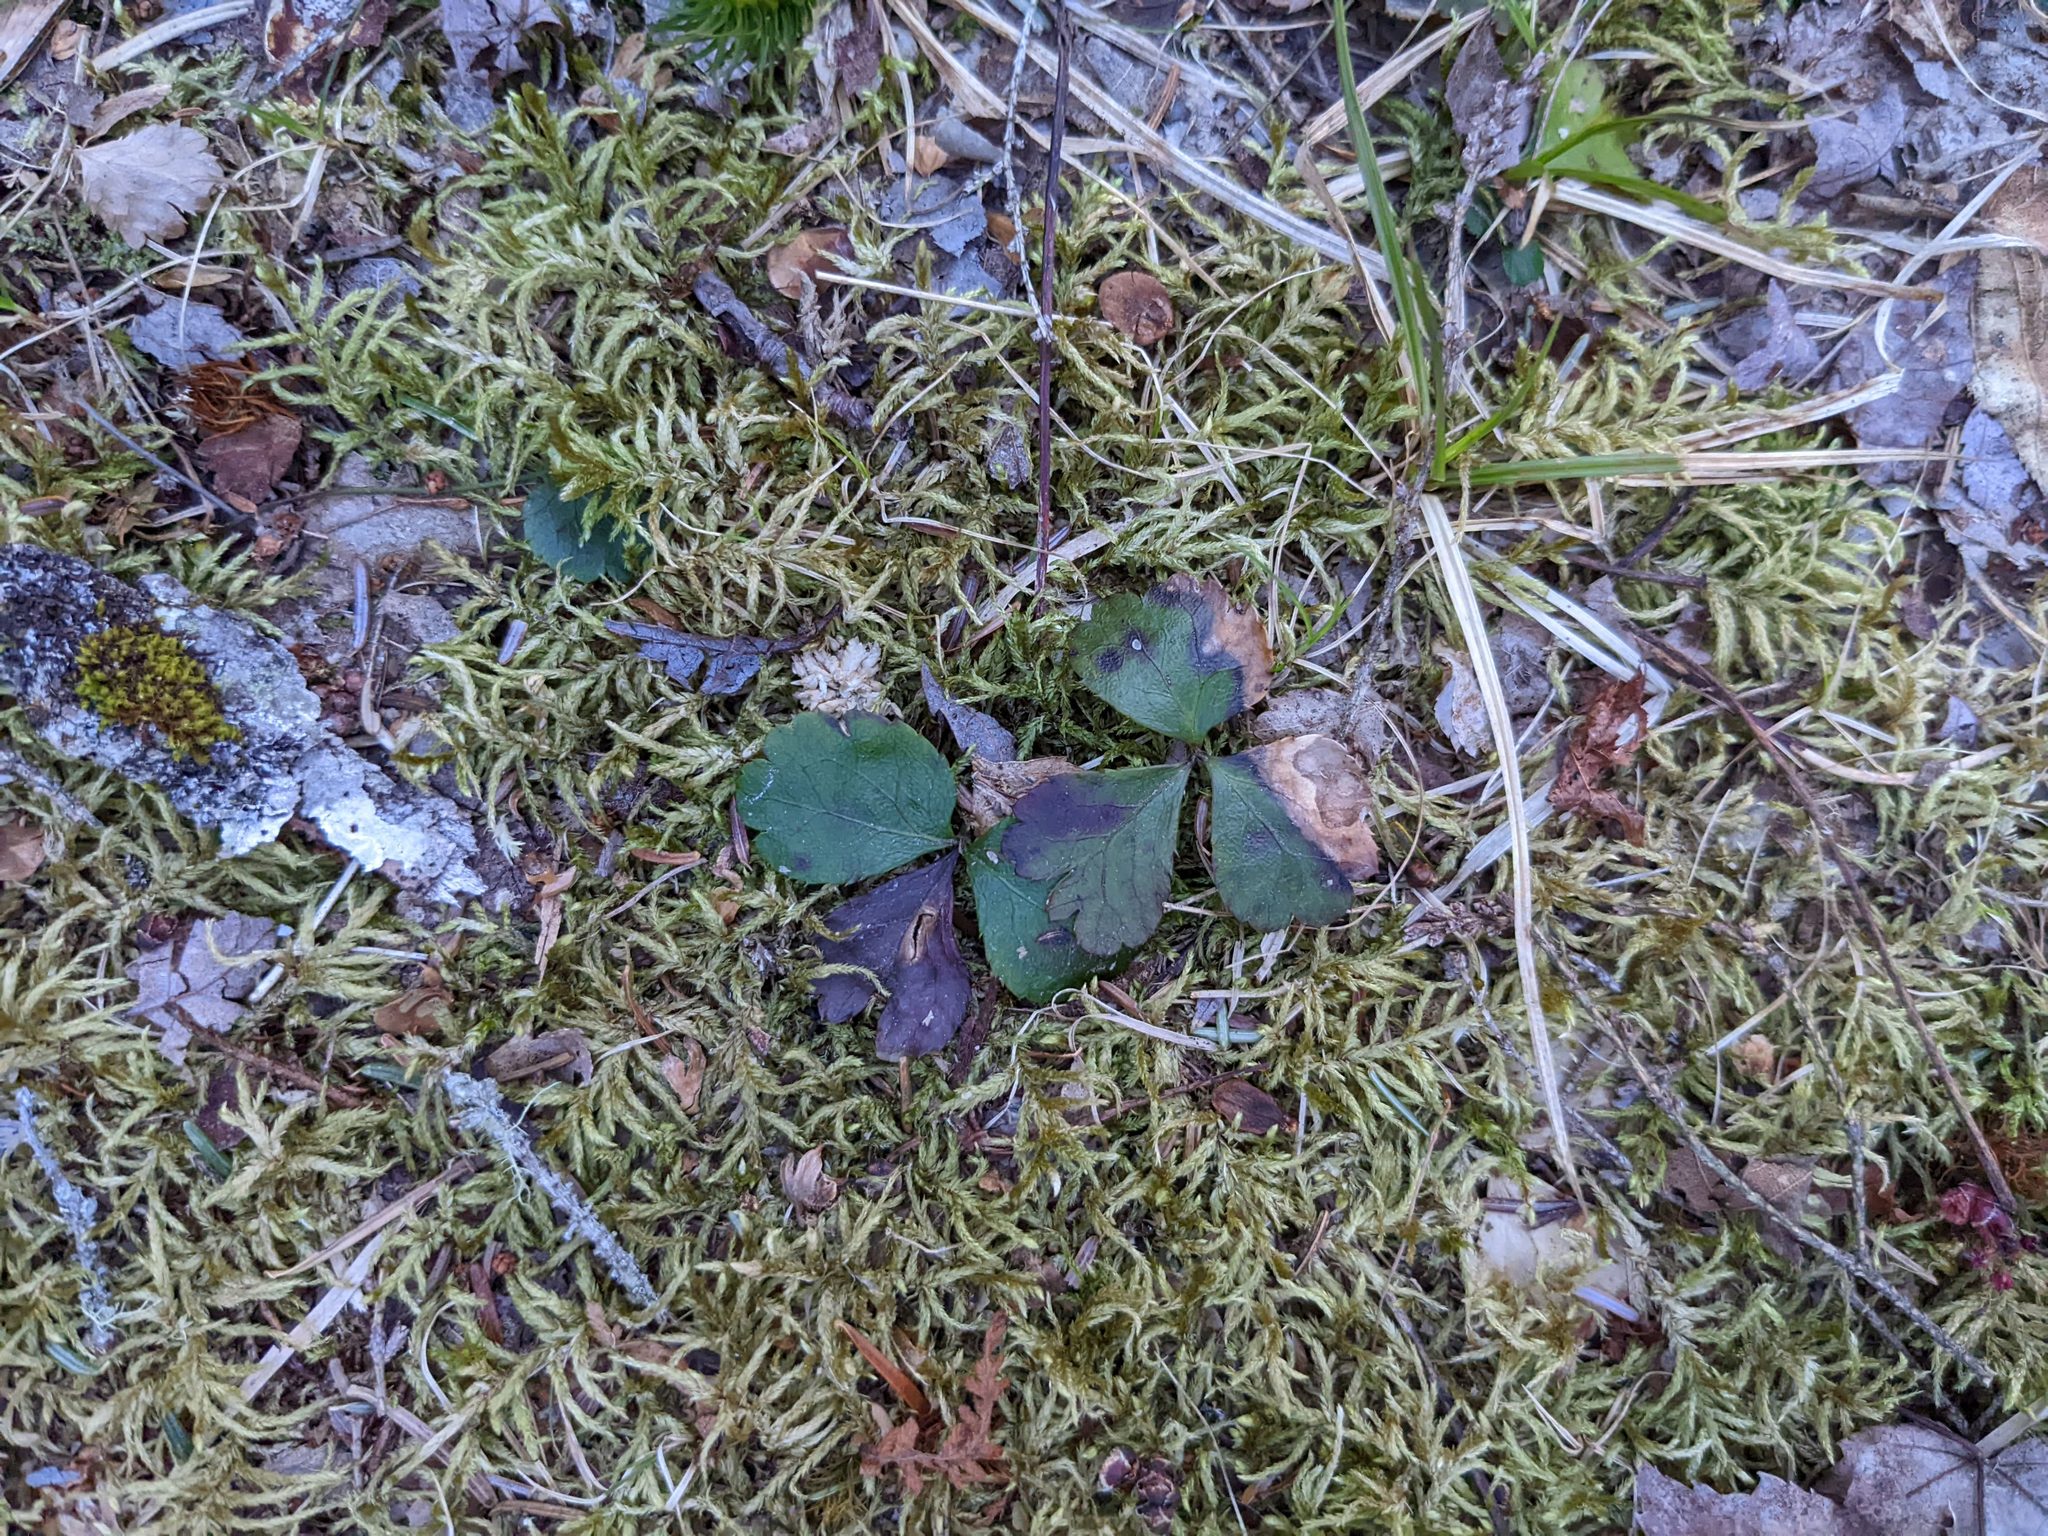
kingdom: Plantae
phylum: Tracheophyta
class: Magnoliopsida
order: Ranunculales
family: Ranunculaceae
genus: Coptis
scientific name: Coptis trifolia
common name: Canker-root
